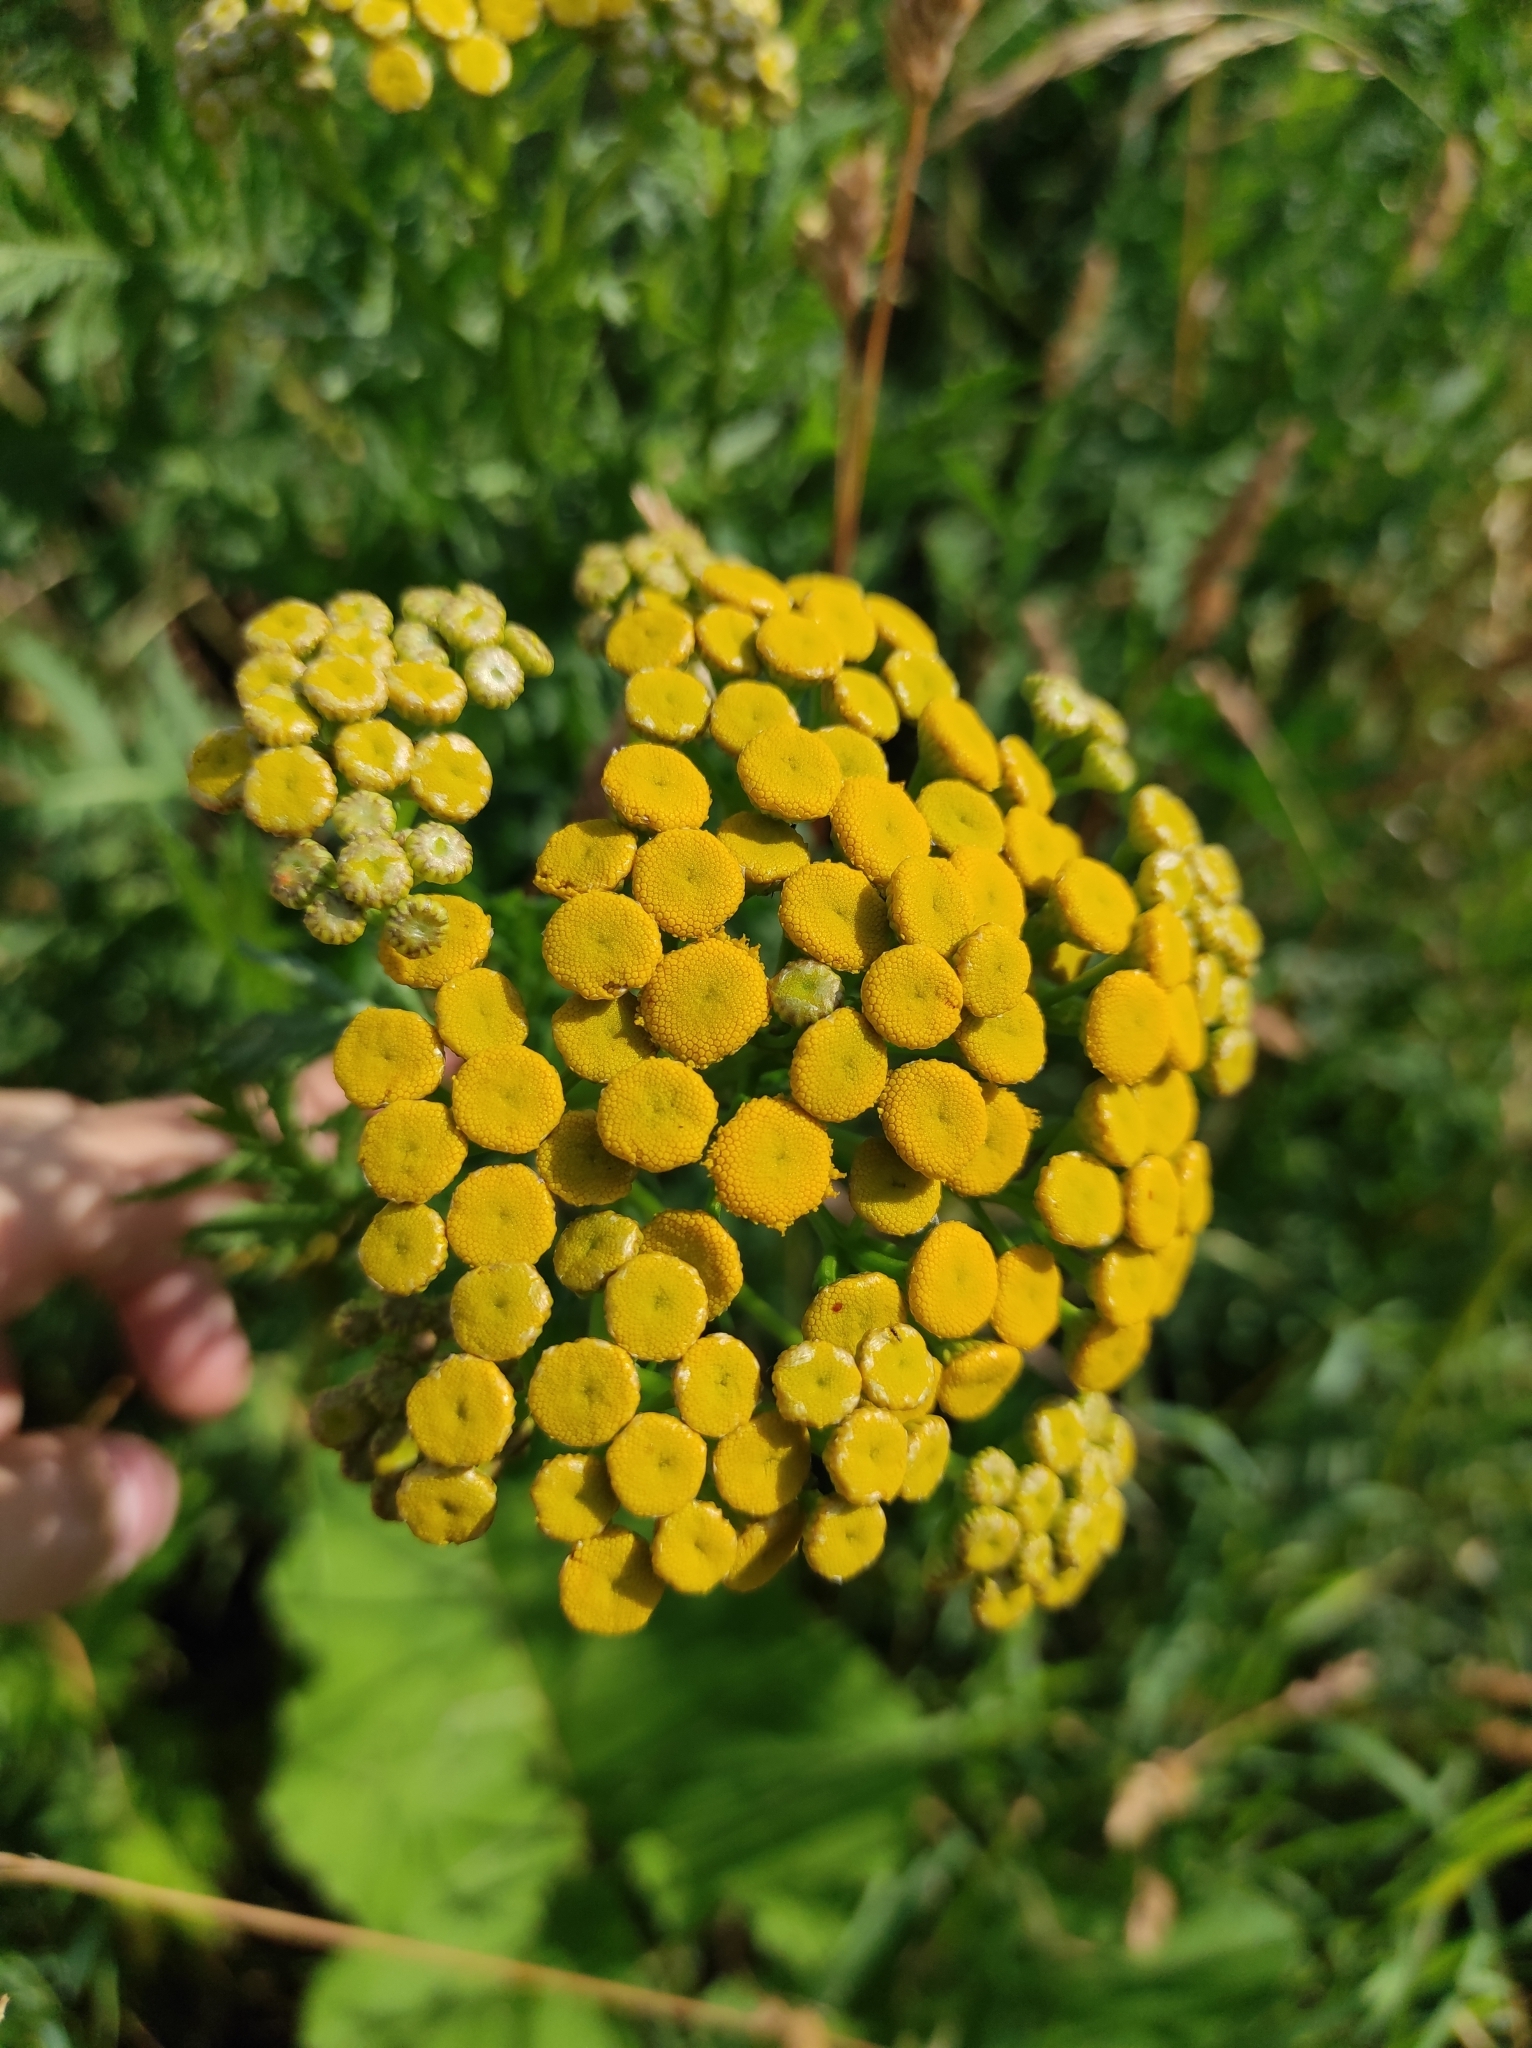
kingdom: Plantae
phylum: Tracheophyta
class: Magnoliopsida
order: Asterales
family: Asteraceae
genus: Tanacetum
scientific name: Tanacetum vulgare
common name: Common tansy
